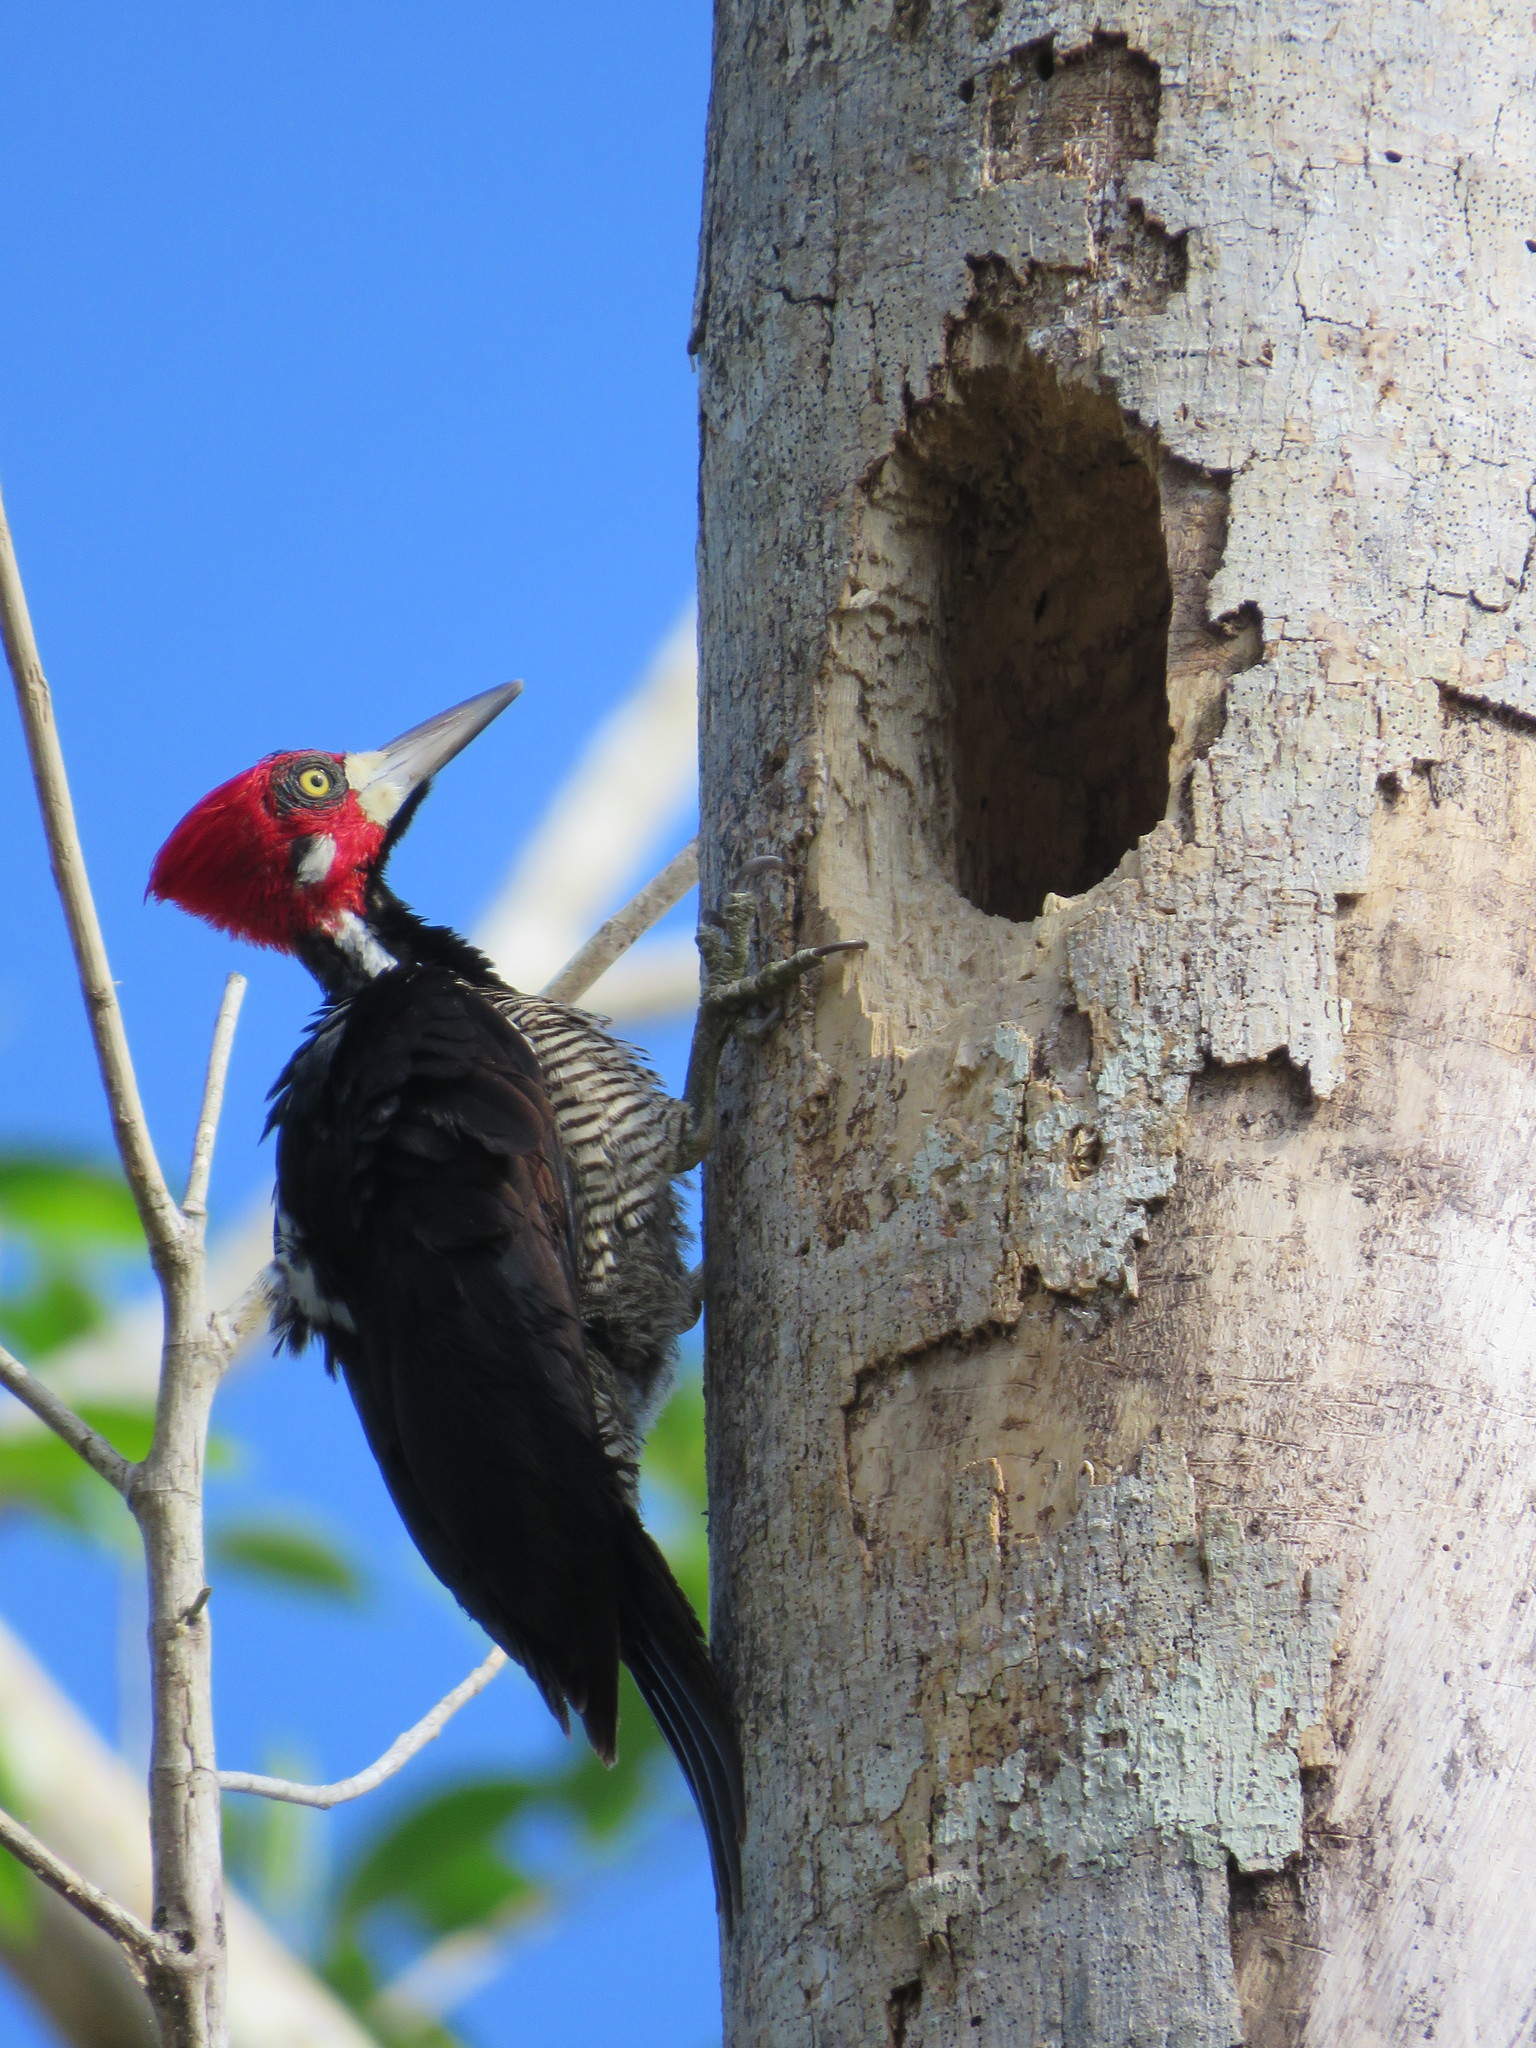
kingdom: Animalia
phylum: Chordata
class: Aves
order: Piciformes
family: Picidae
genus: Campephilus
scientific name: Campephilus melanoleucos
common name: Crimson-crested woodpecker
